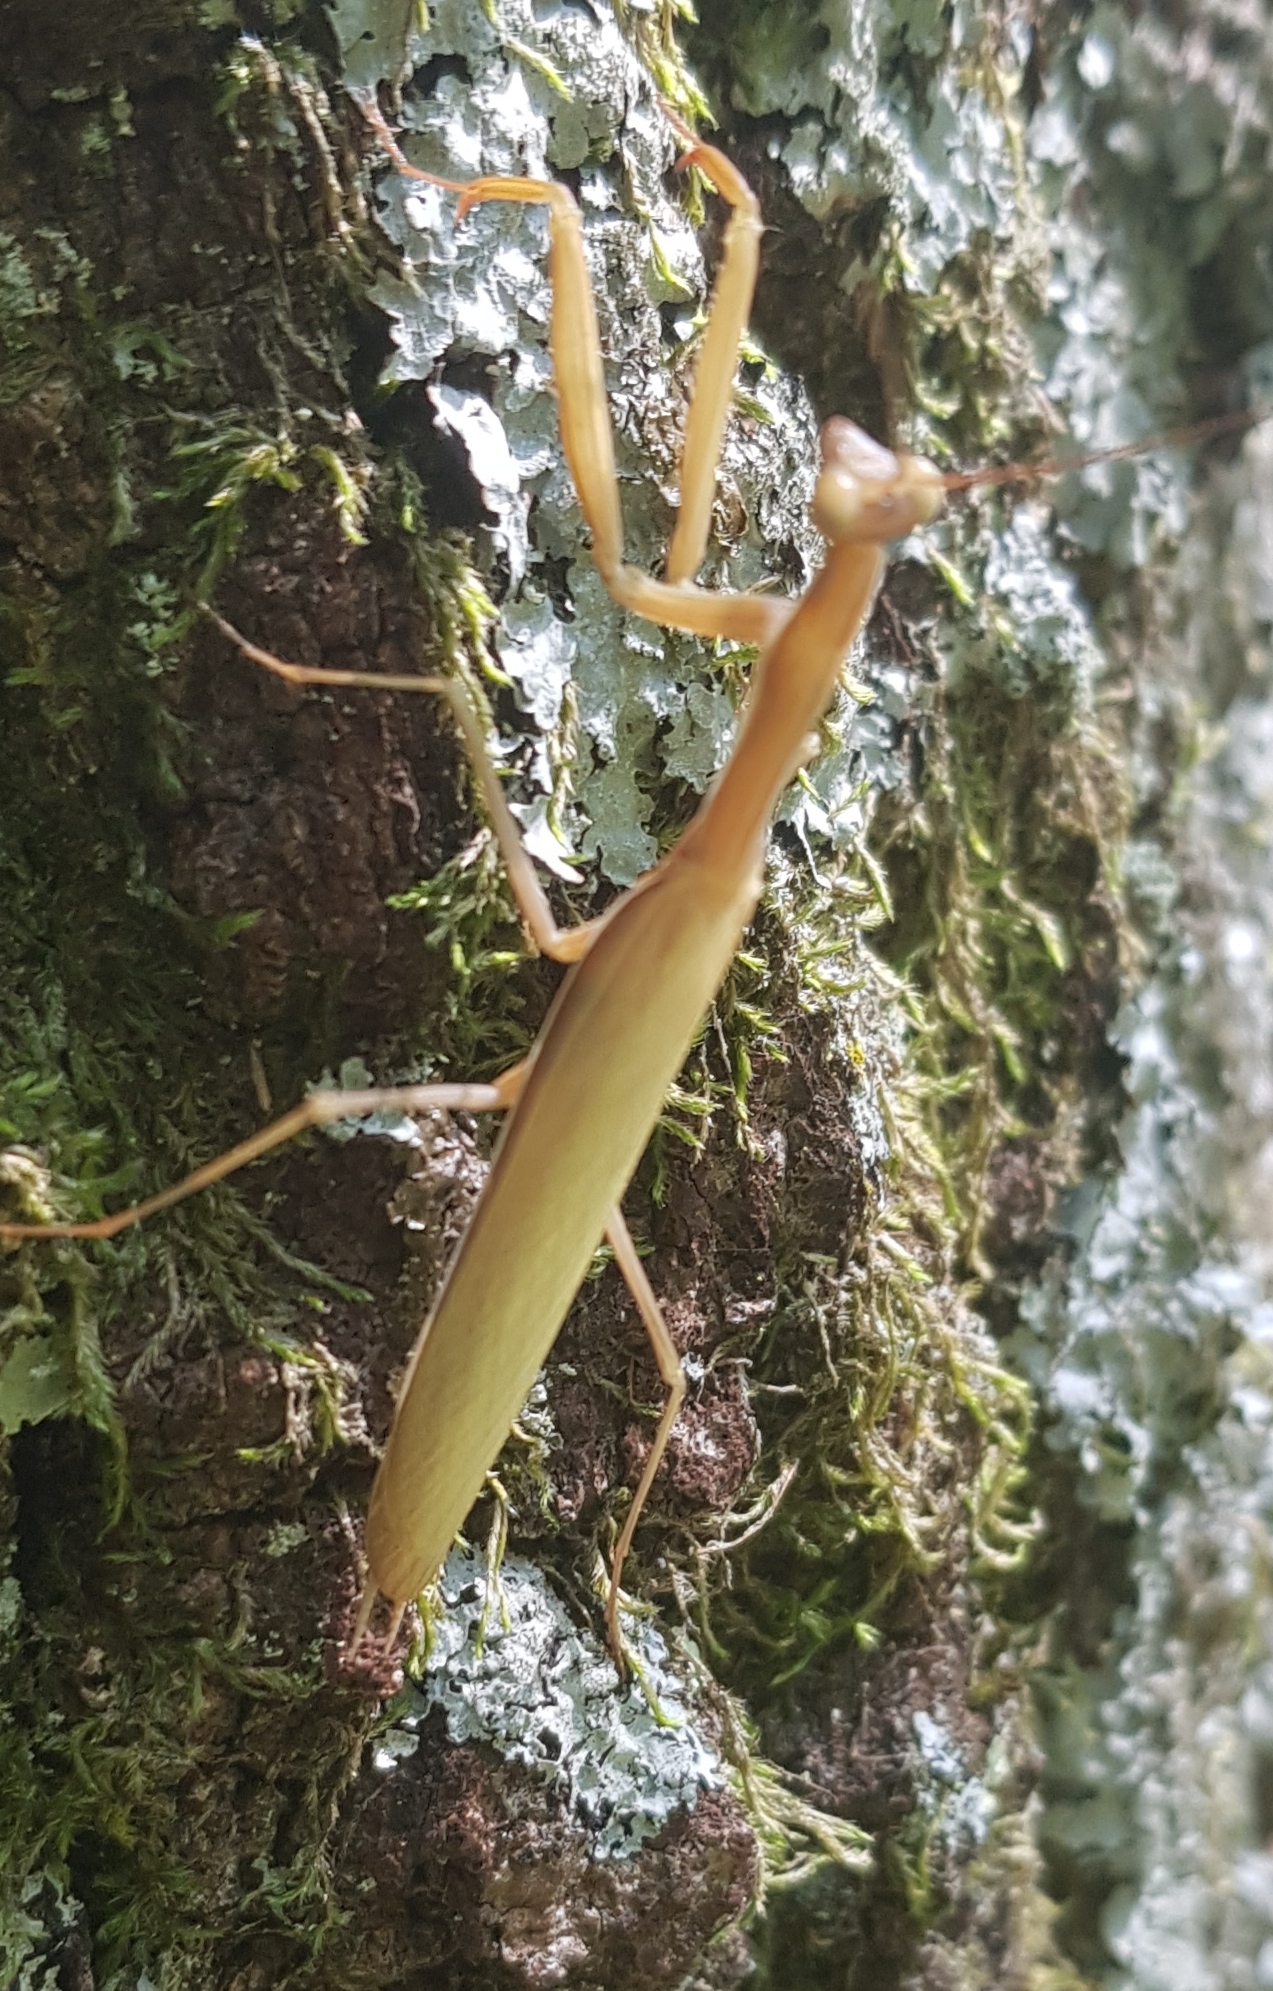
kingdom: Animalia
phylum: Arthropoda
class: Insecta
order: Mantodea
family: Mantidae
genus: Mantis
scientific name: Mantis religiosa
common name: Praying mantis
